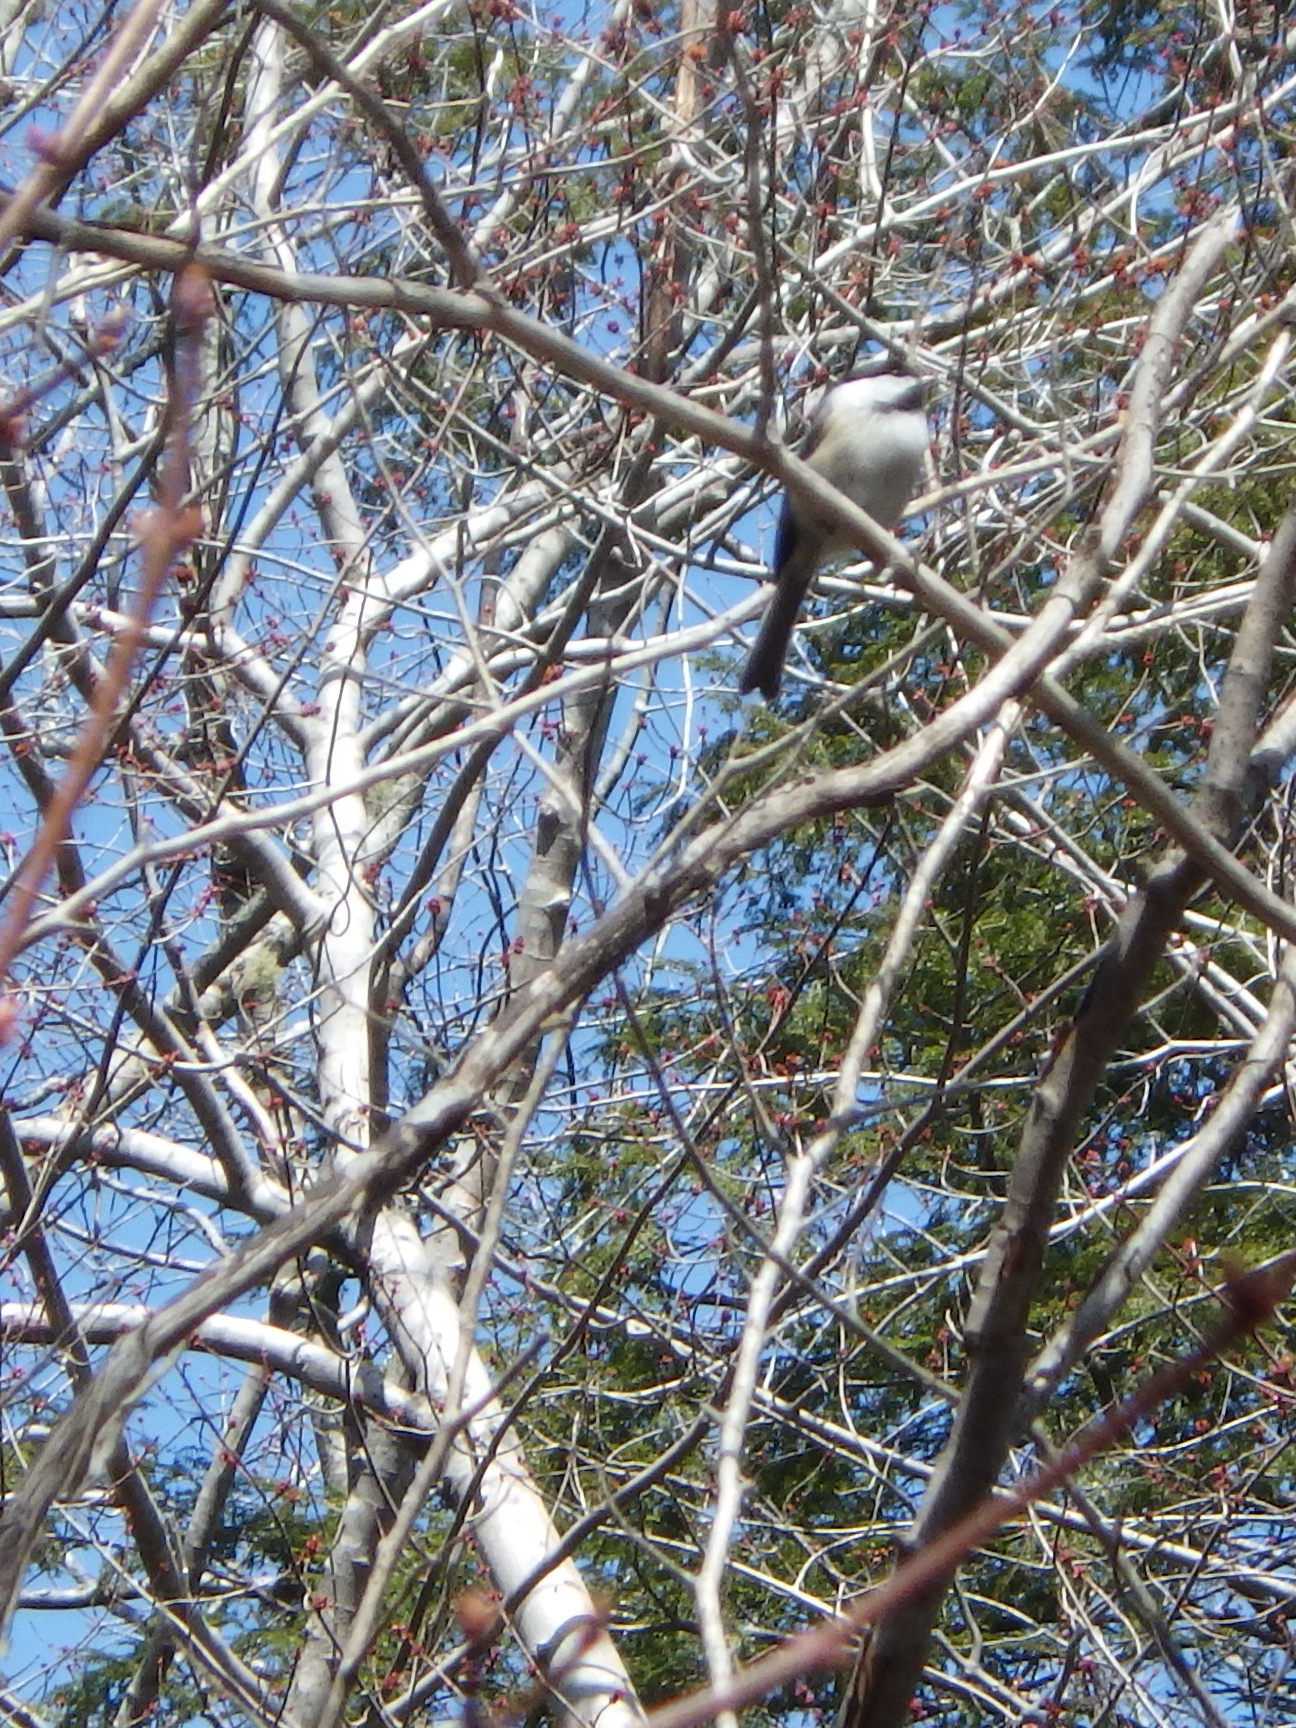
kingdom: Animalia
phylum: Chordata
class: Aves
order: Passeriformes
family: Paridae
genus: Poecile
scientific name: Poecile atricapillus
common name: Black-capped chickadee
